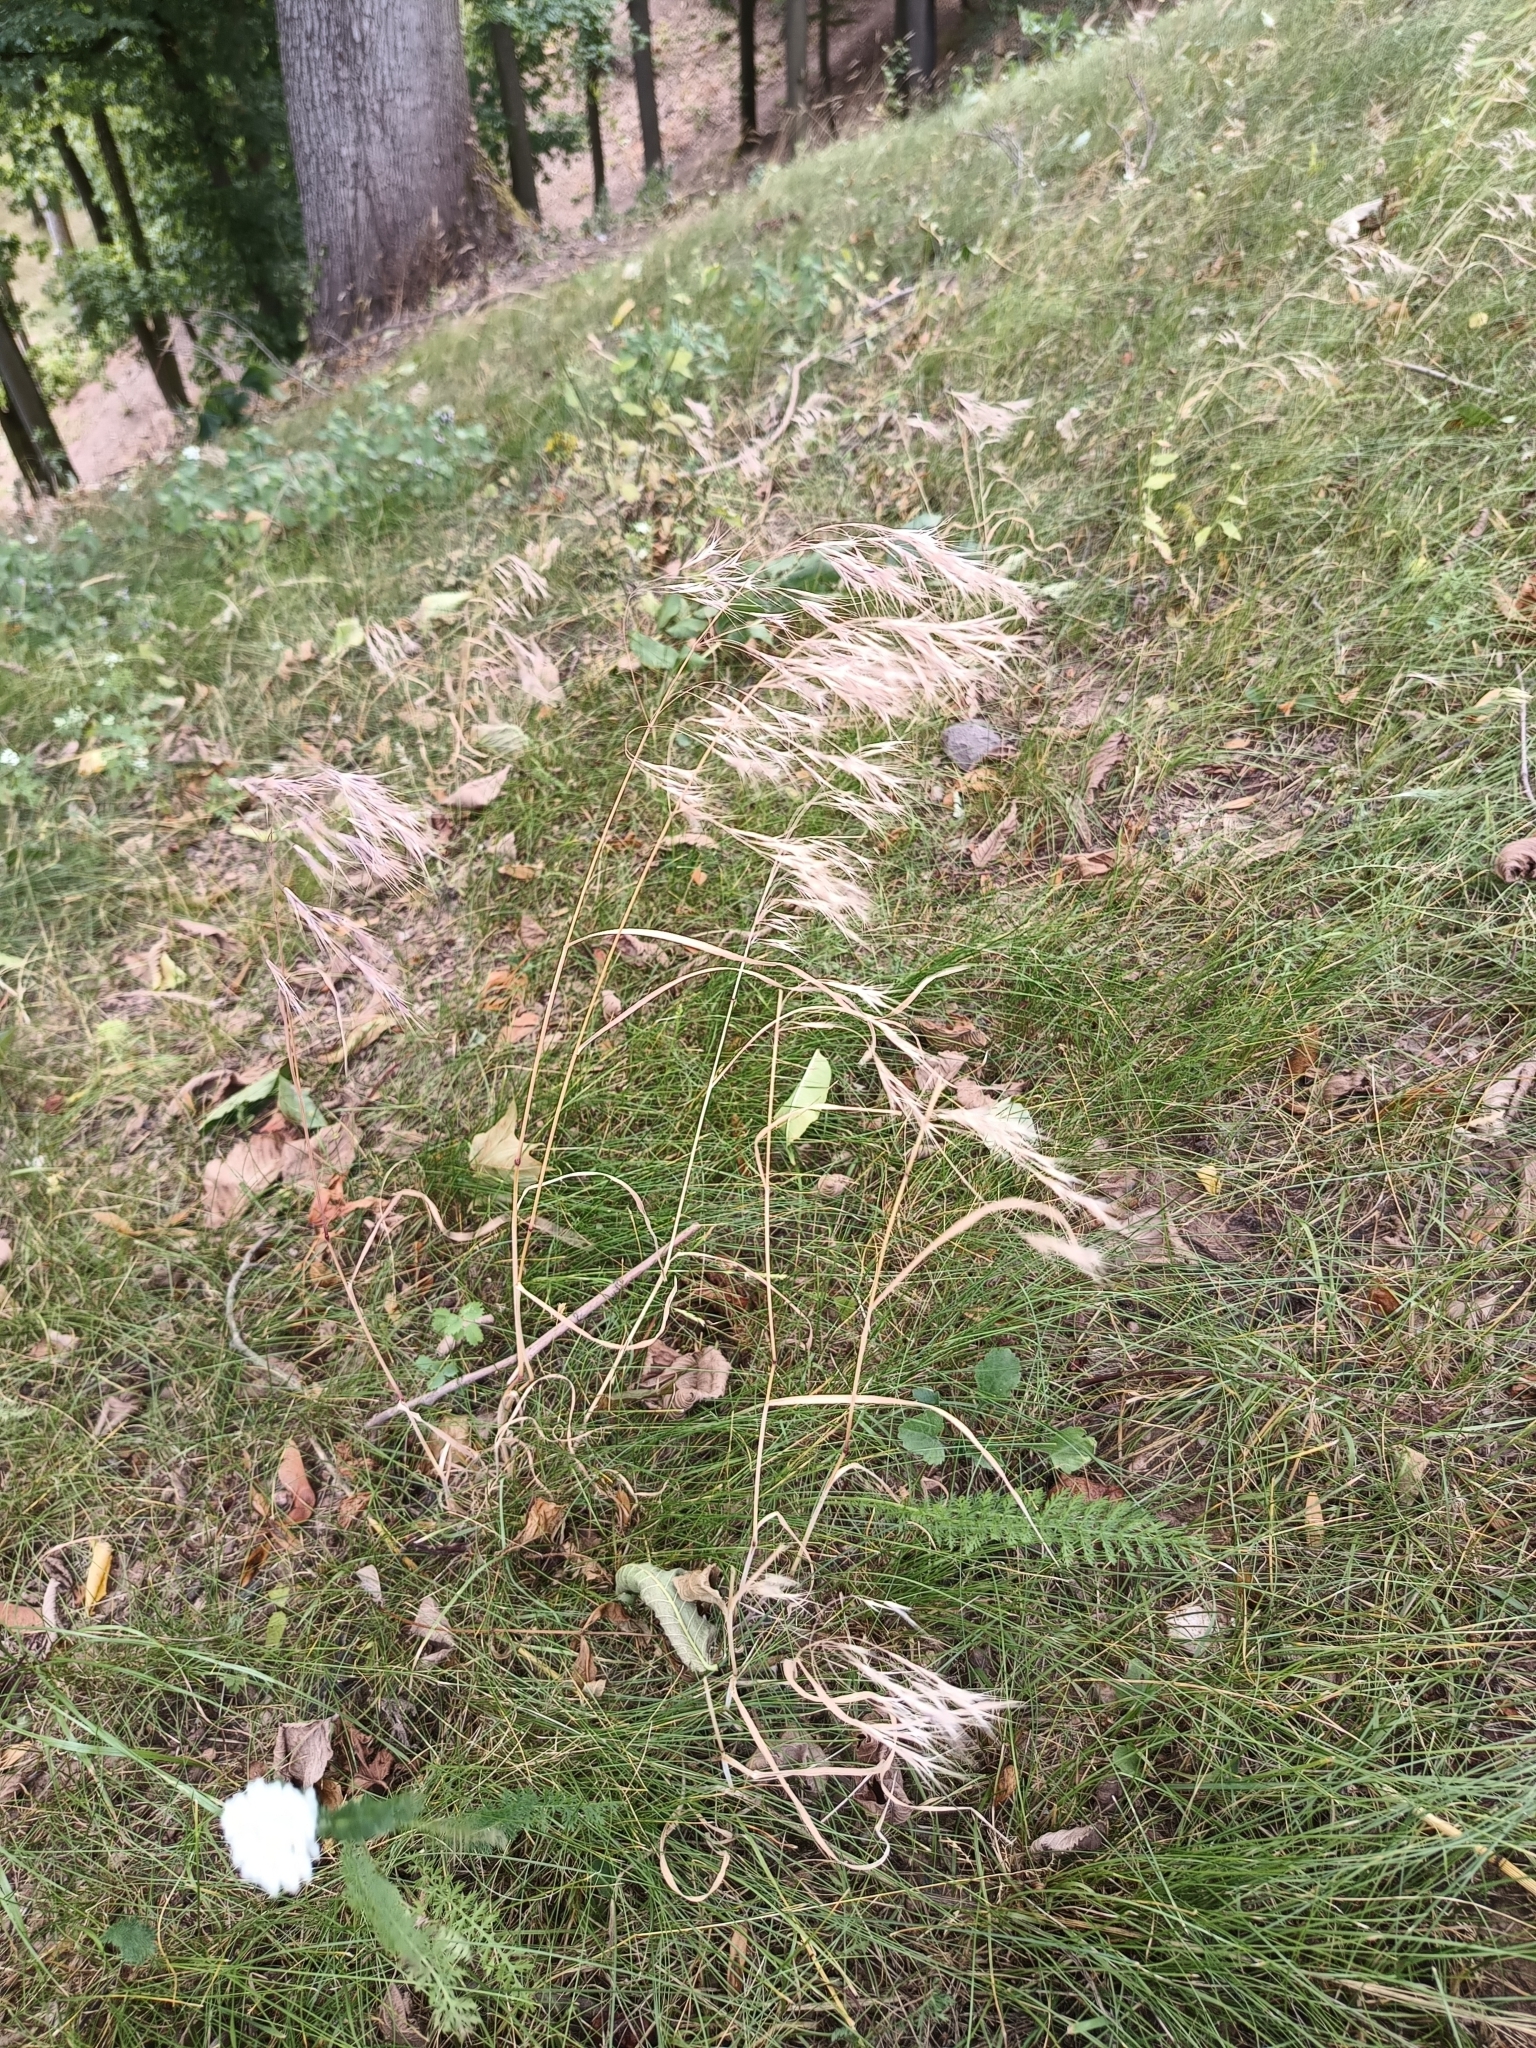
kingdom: Plantae
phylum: Tracheophyta
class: Liliopsida
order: Poales
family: Poaceae
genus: Bromus
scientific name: Bromus tectorum
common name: Cheatgrass
